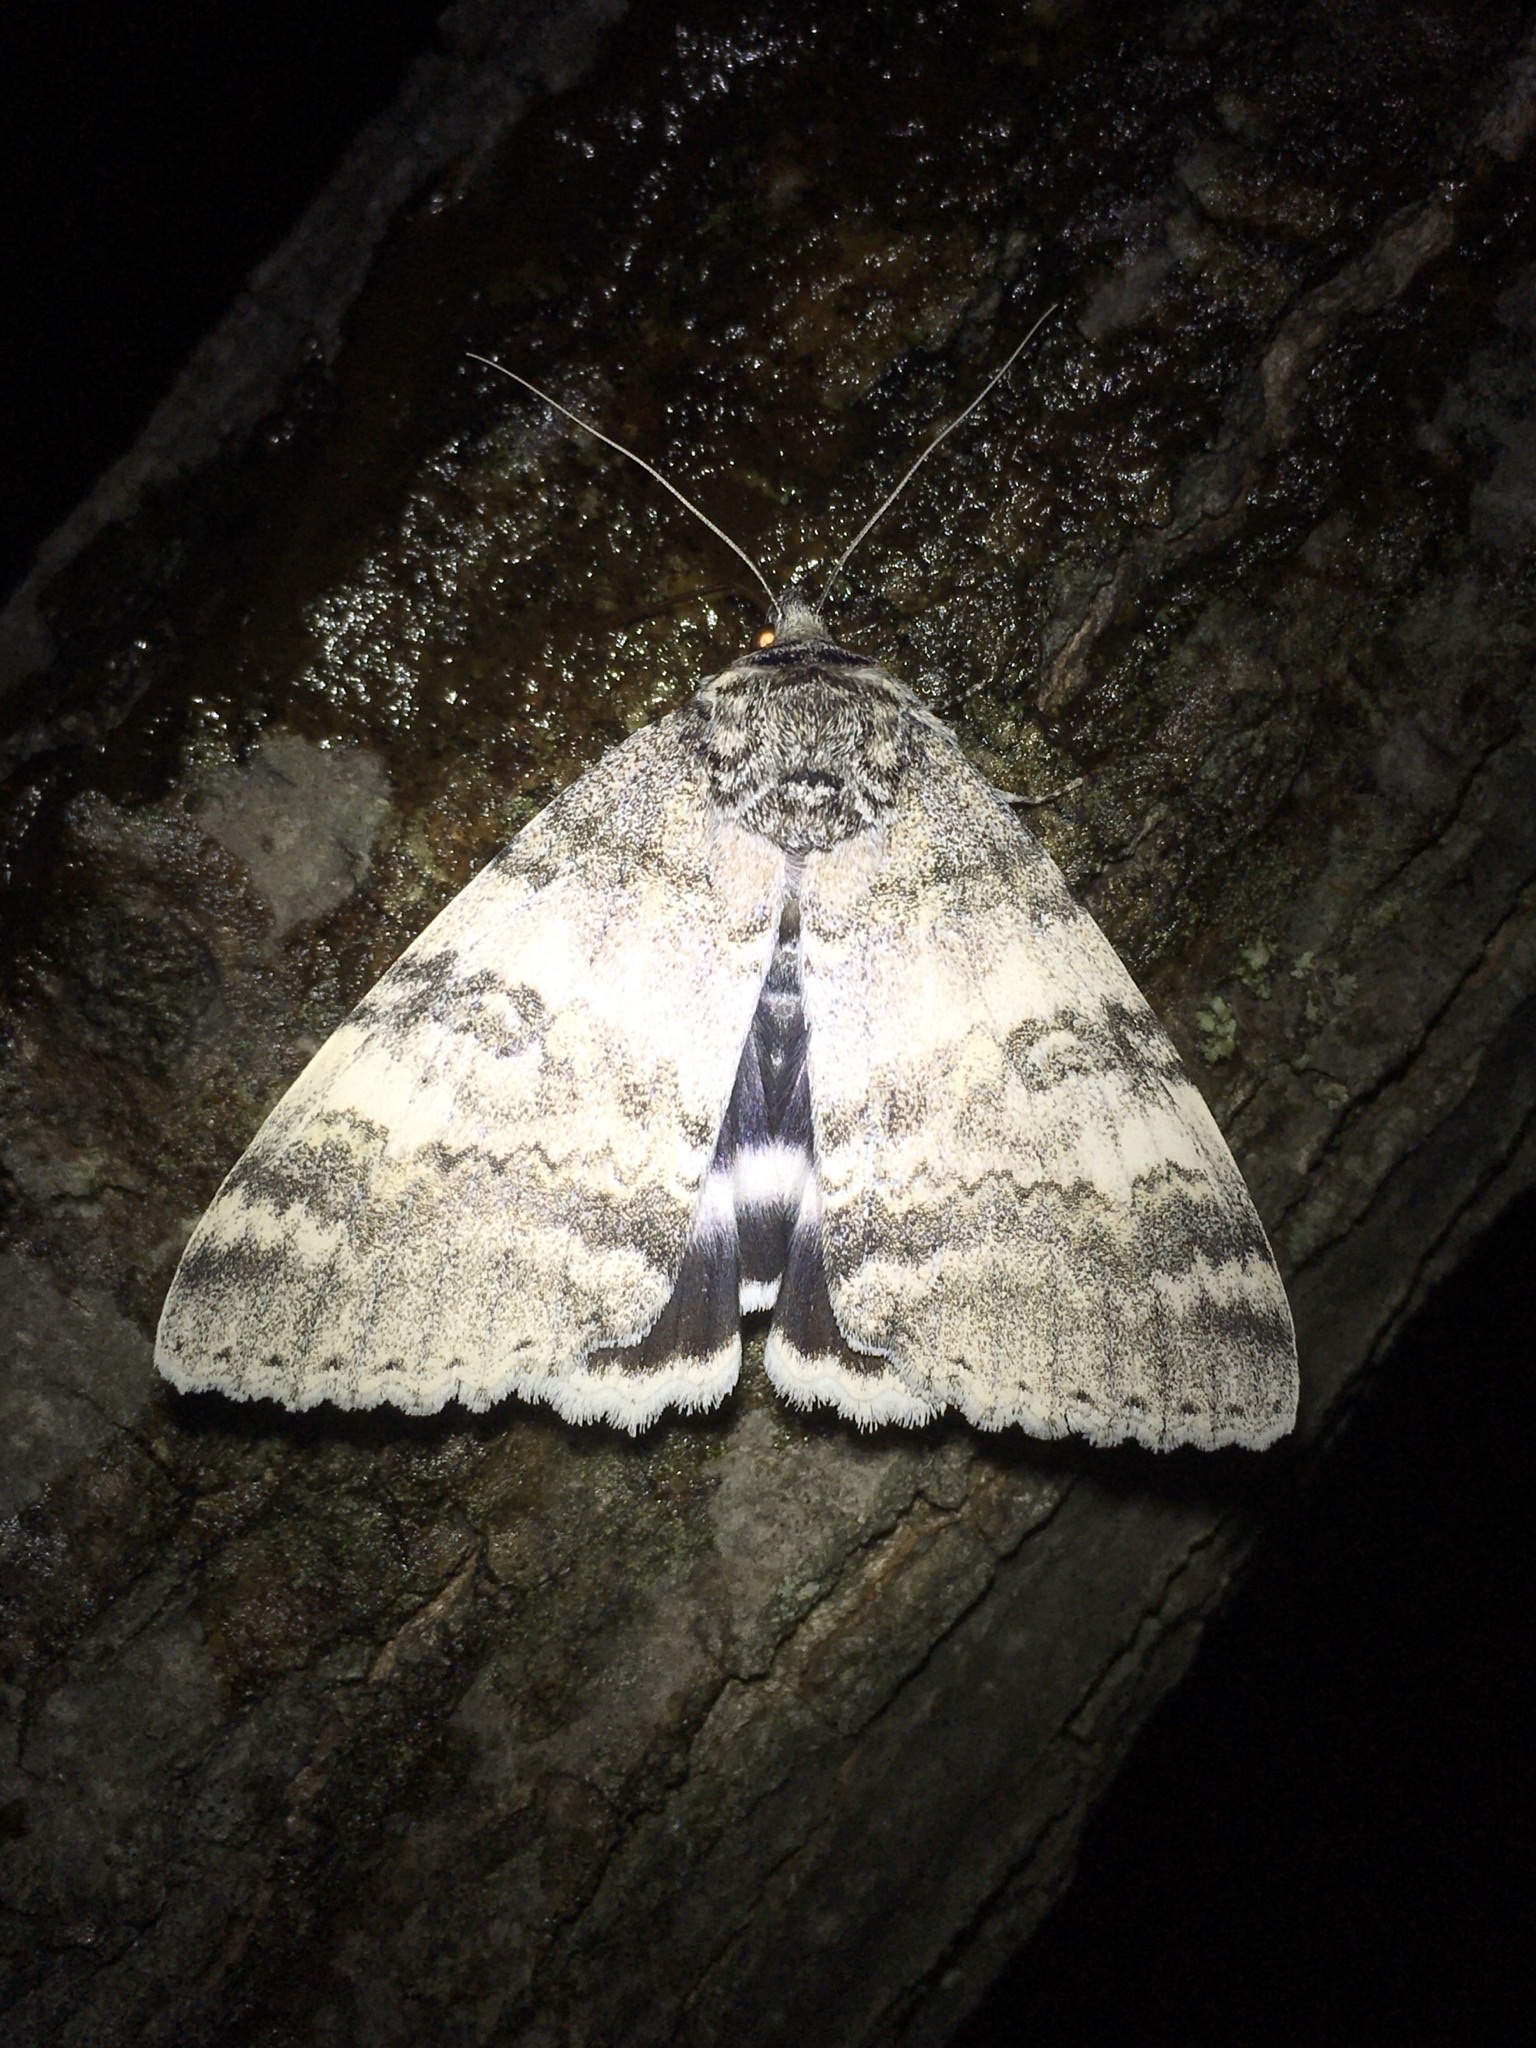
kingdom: Animalia
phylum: Arthropoda
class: Insecta
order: Lepidoptera
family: Erebidae
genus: Catocala
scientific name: Catocala relicta
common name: White underwing
